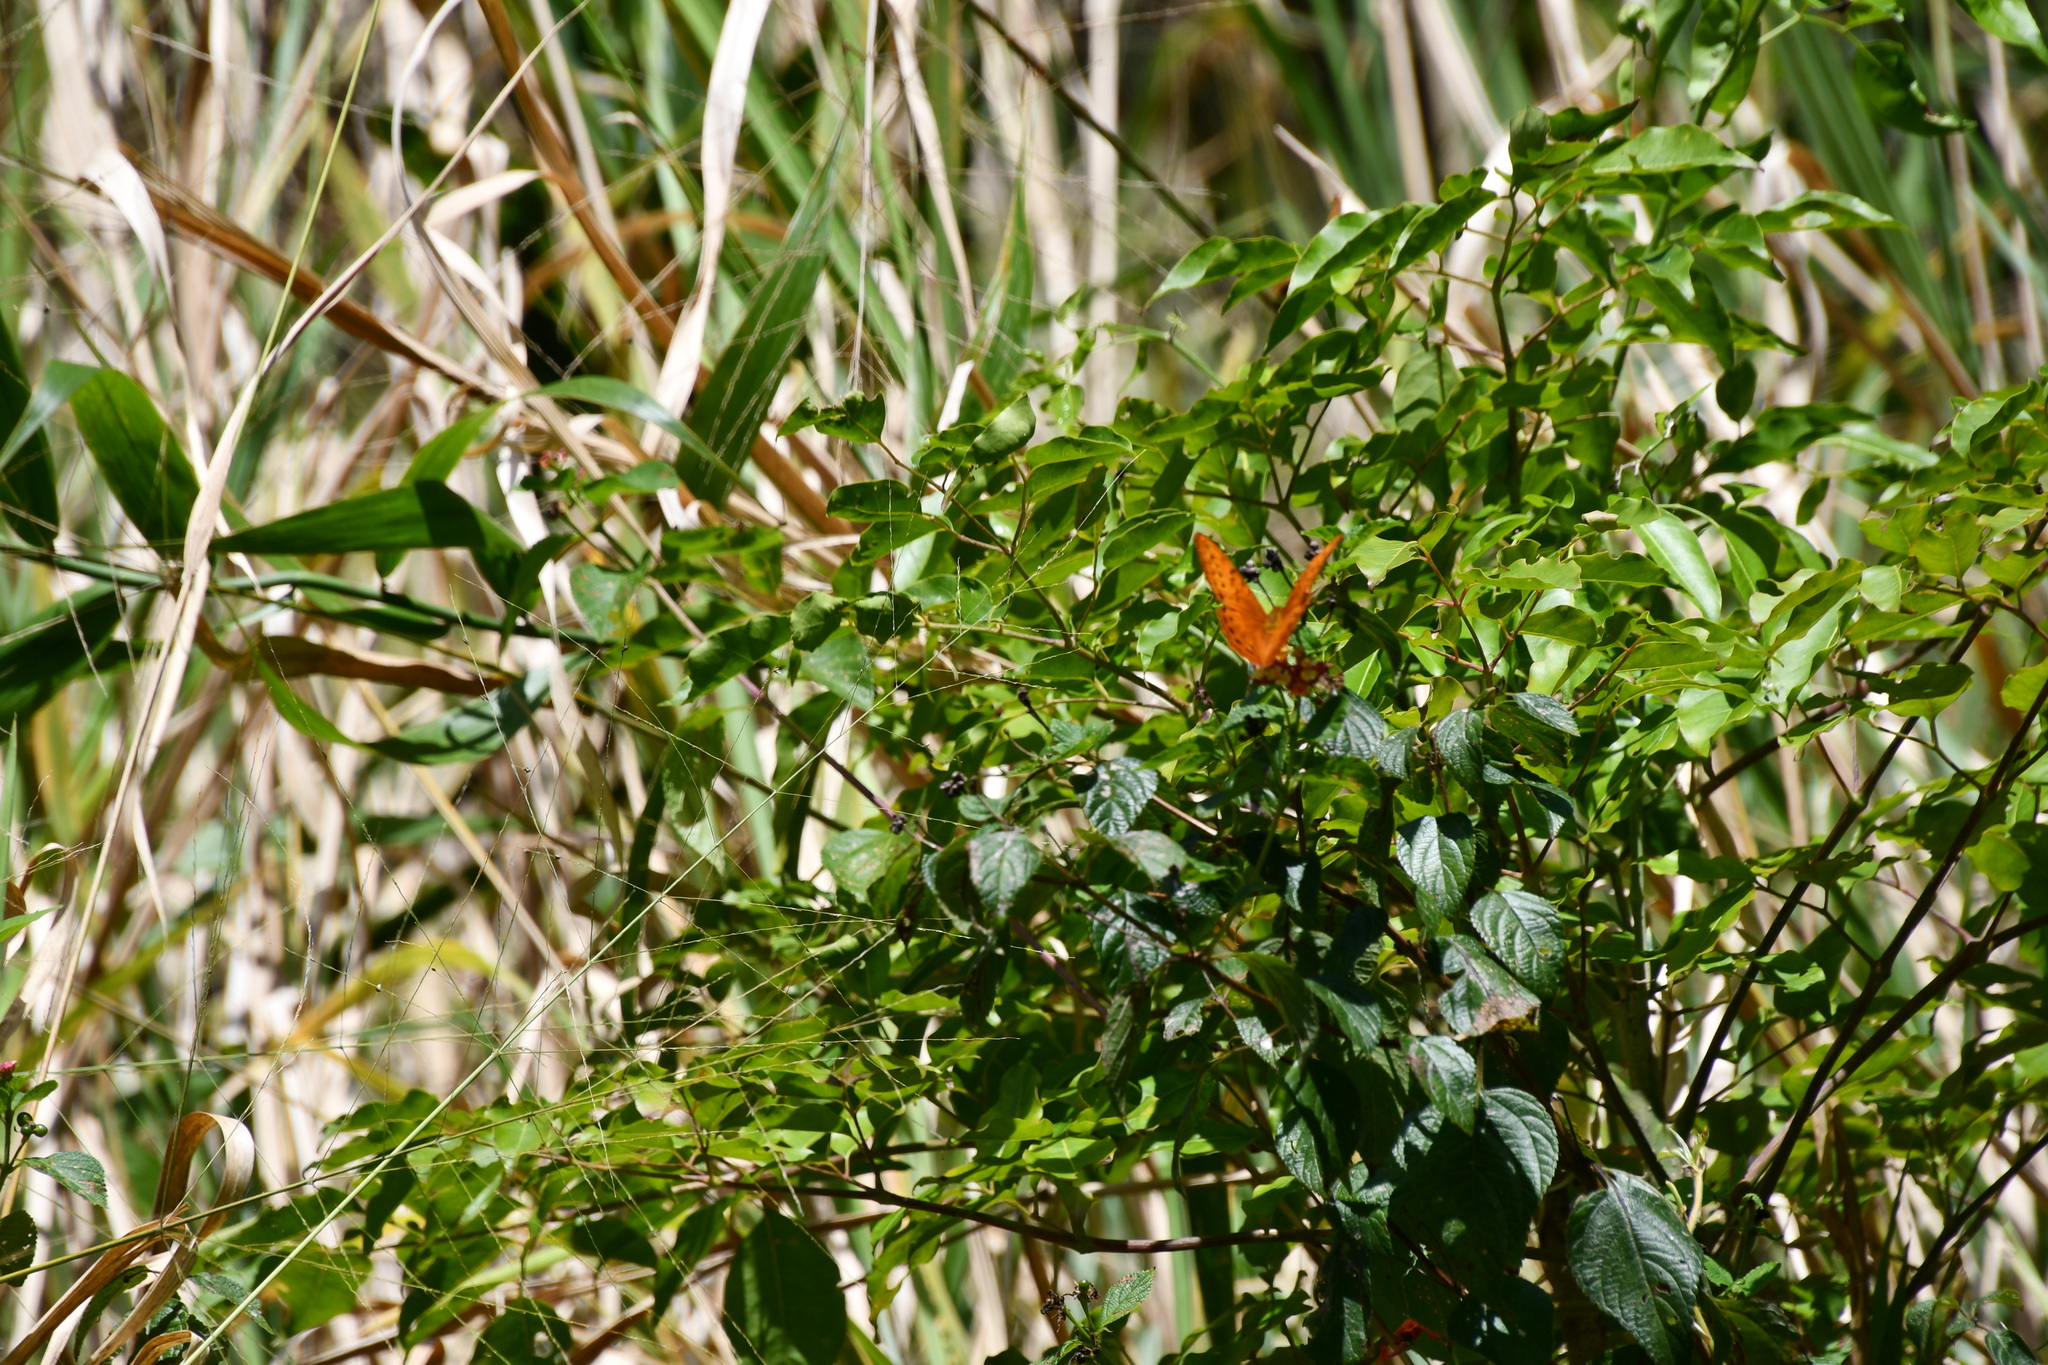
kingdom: Animalia
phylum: Arthropoda
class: Insecta
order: Lepidoptera
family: Nymphalidae
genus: Vindula
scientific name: Vindula arsinoe
